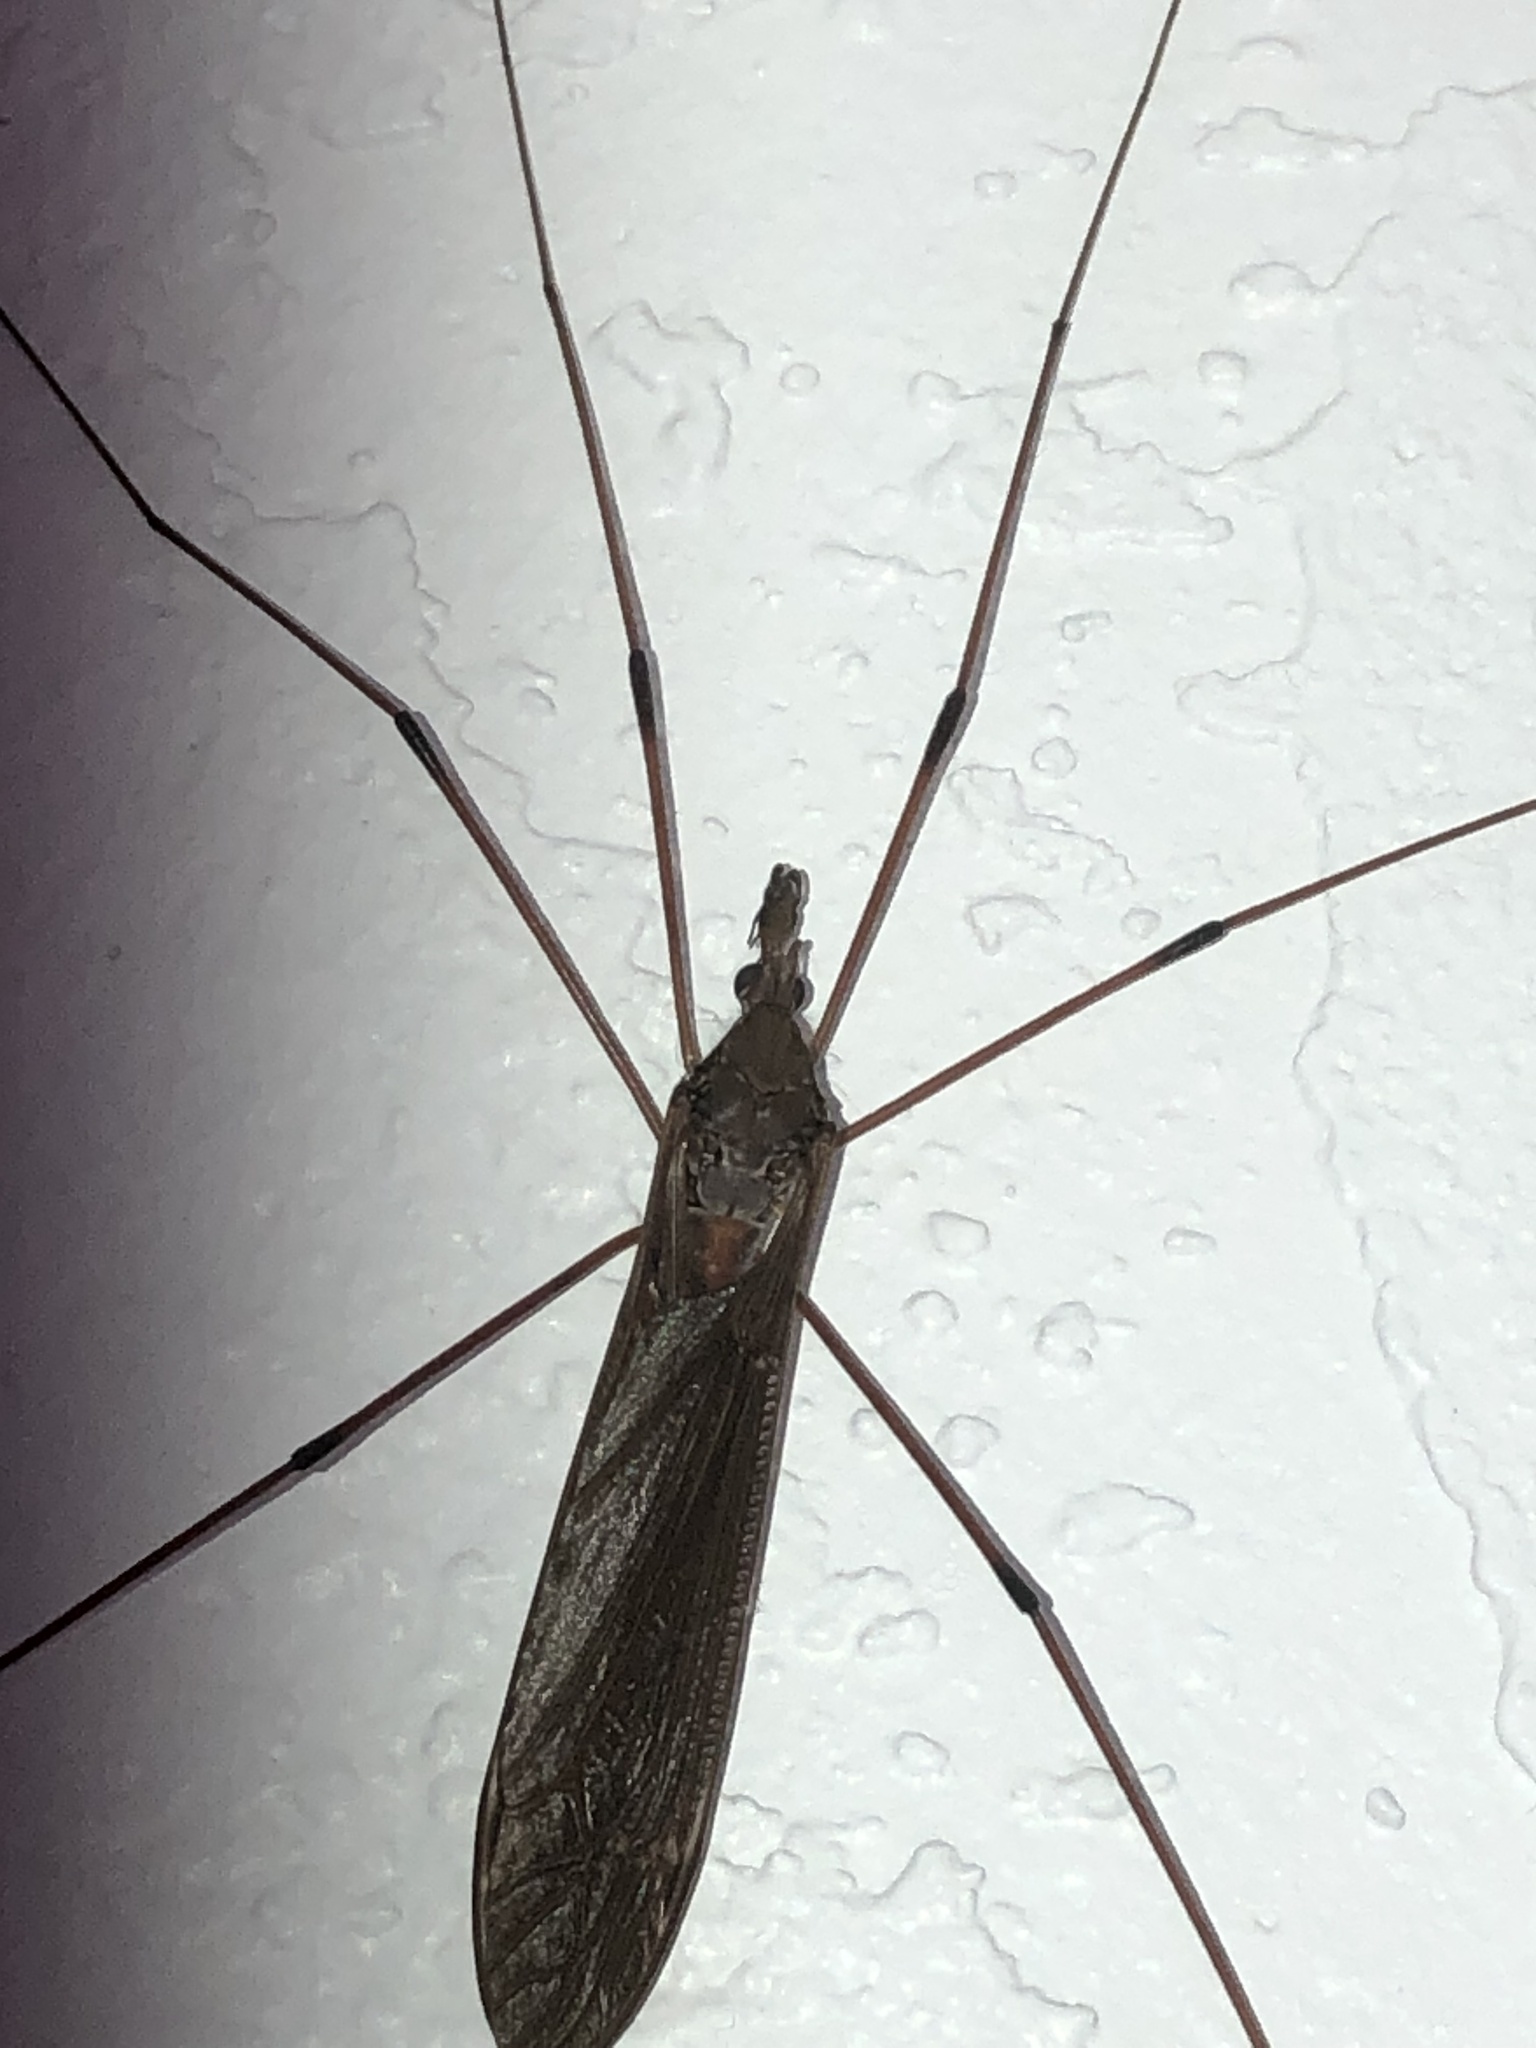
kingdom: Animalia
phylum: Arthropoda
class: Insecta
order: Diptera
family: Tipulidae
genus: Holorusia
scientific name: Holorusia hespera
